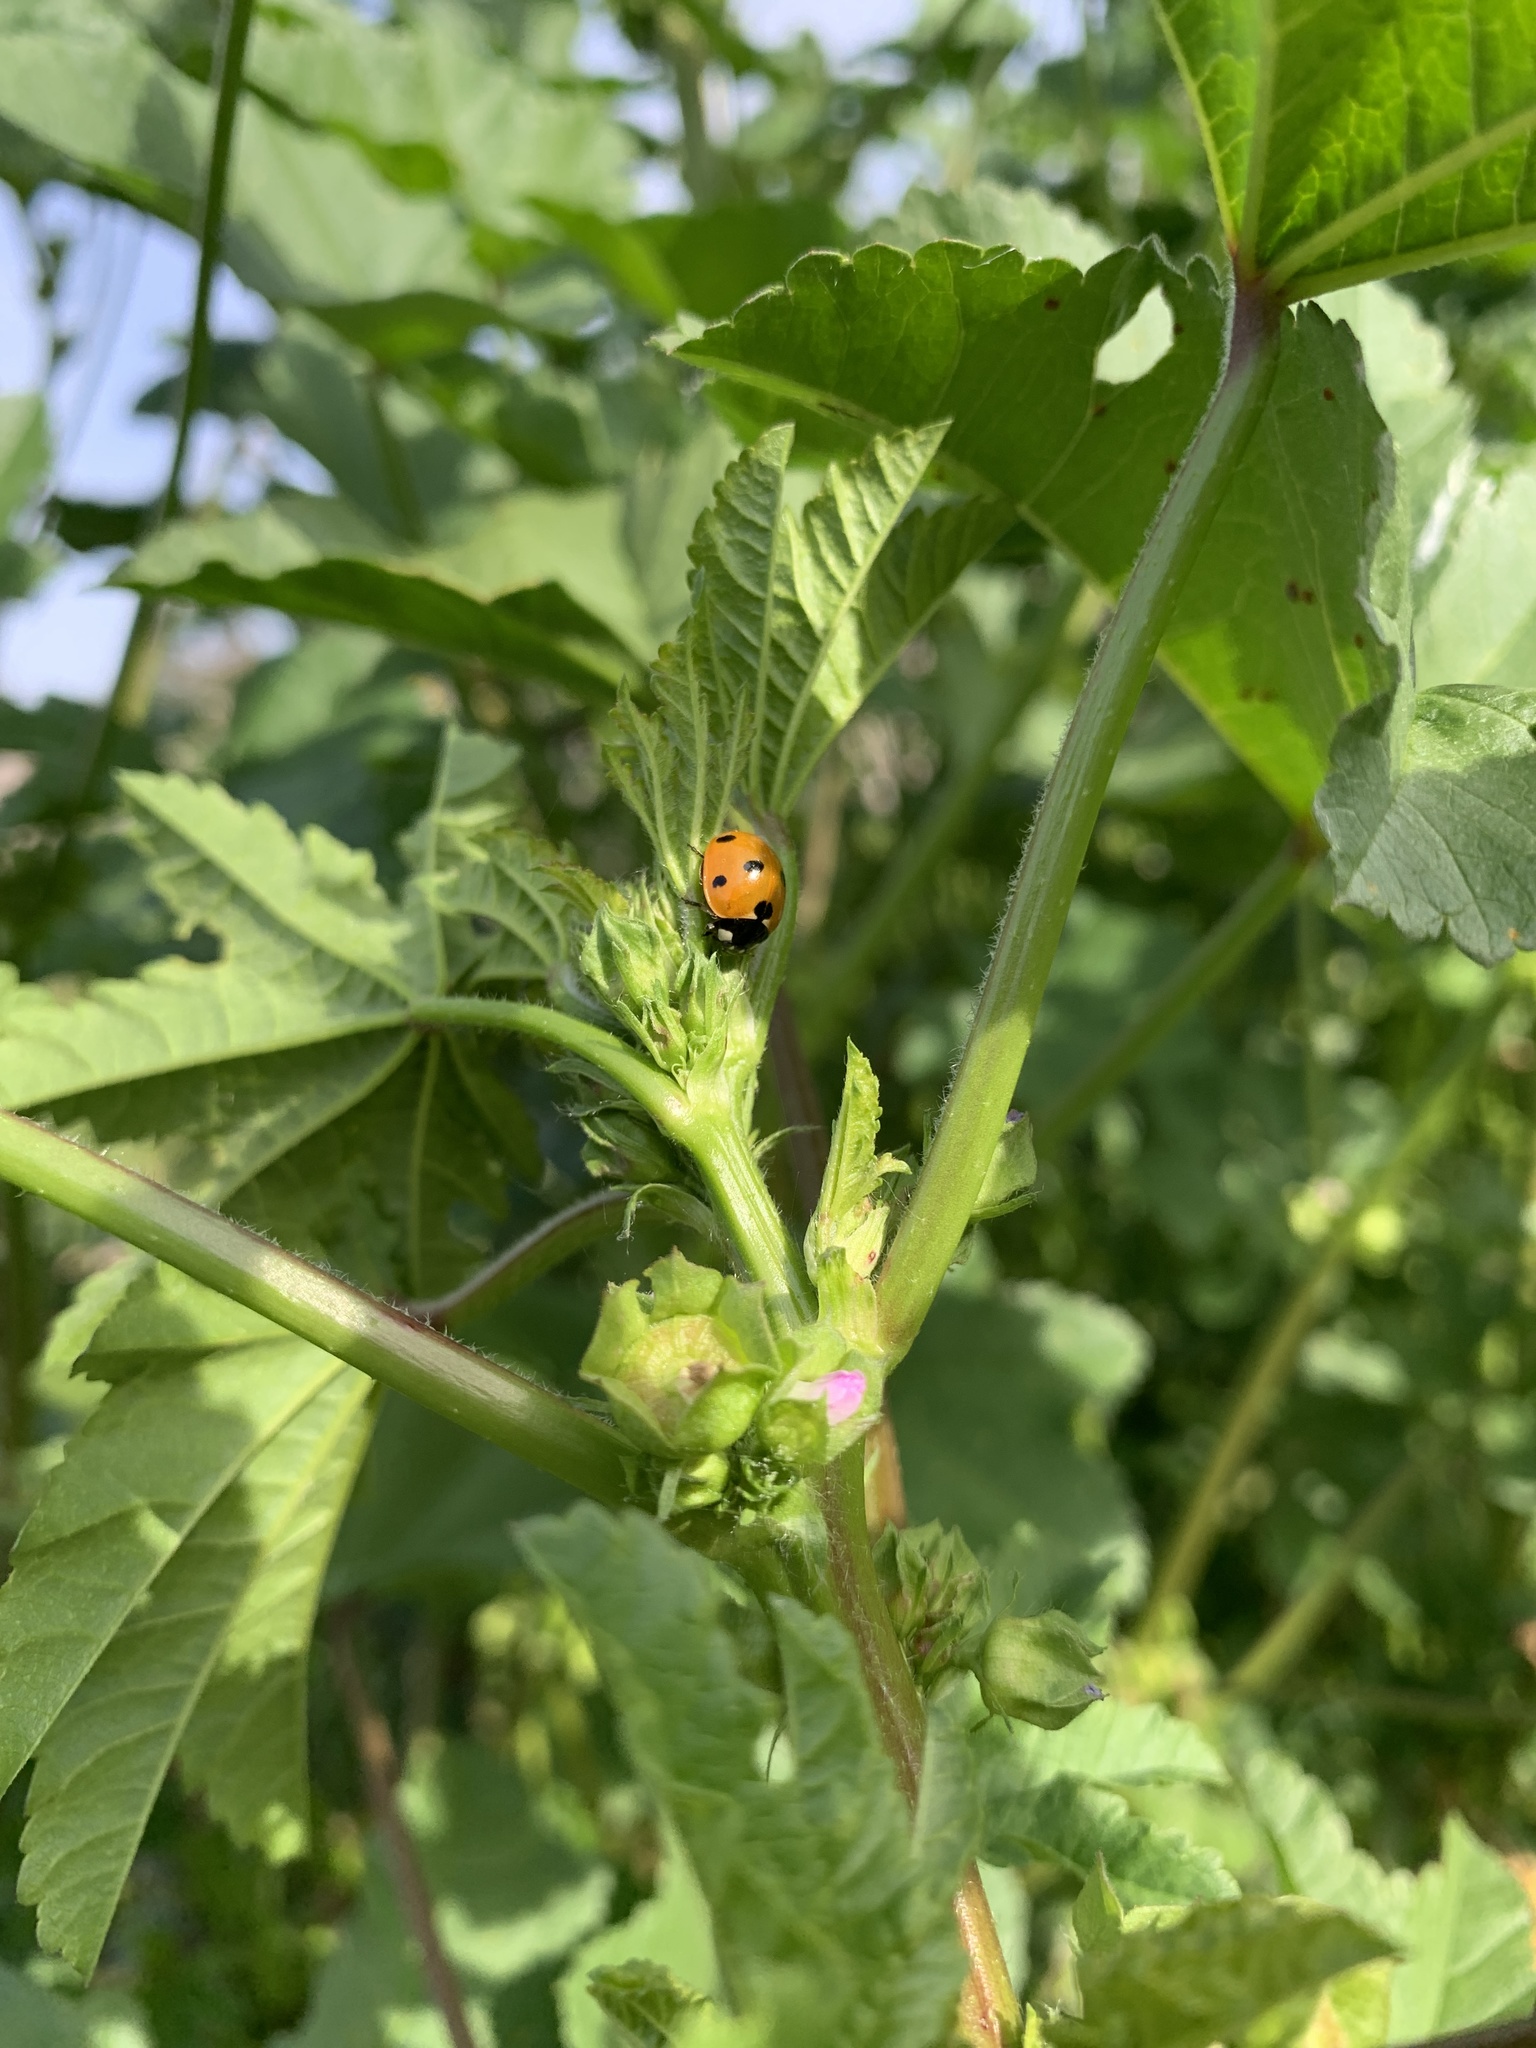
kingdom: Animalia
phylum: Arthropoda
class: Insecta
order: Coleoptera
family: Coccinellidae
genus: Coccinella
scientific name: Coccinella septempunctata
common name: Sevenspotted lady beetle
